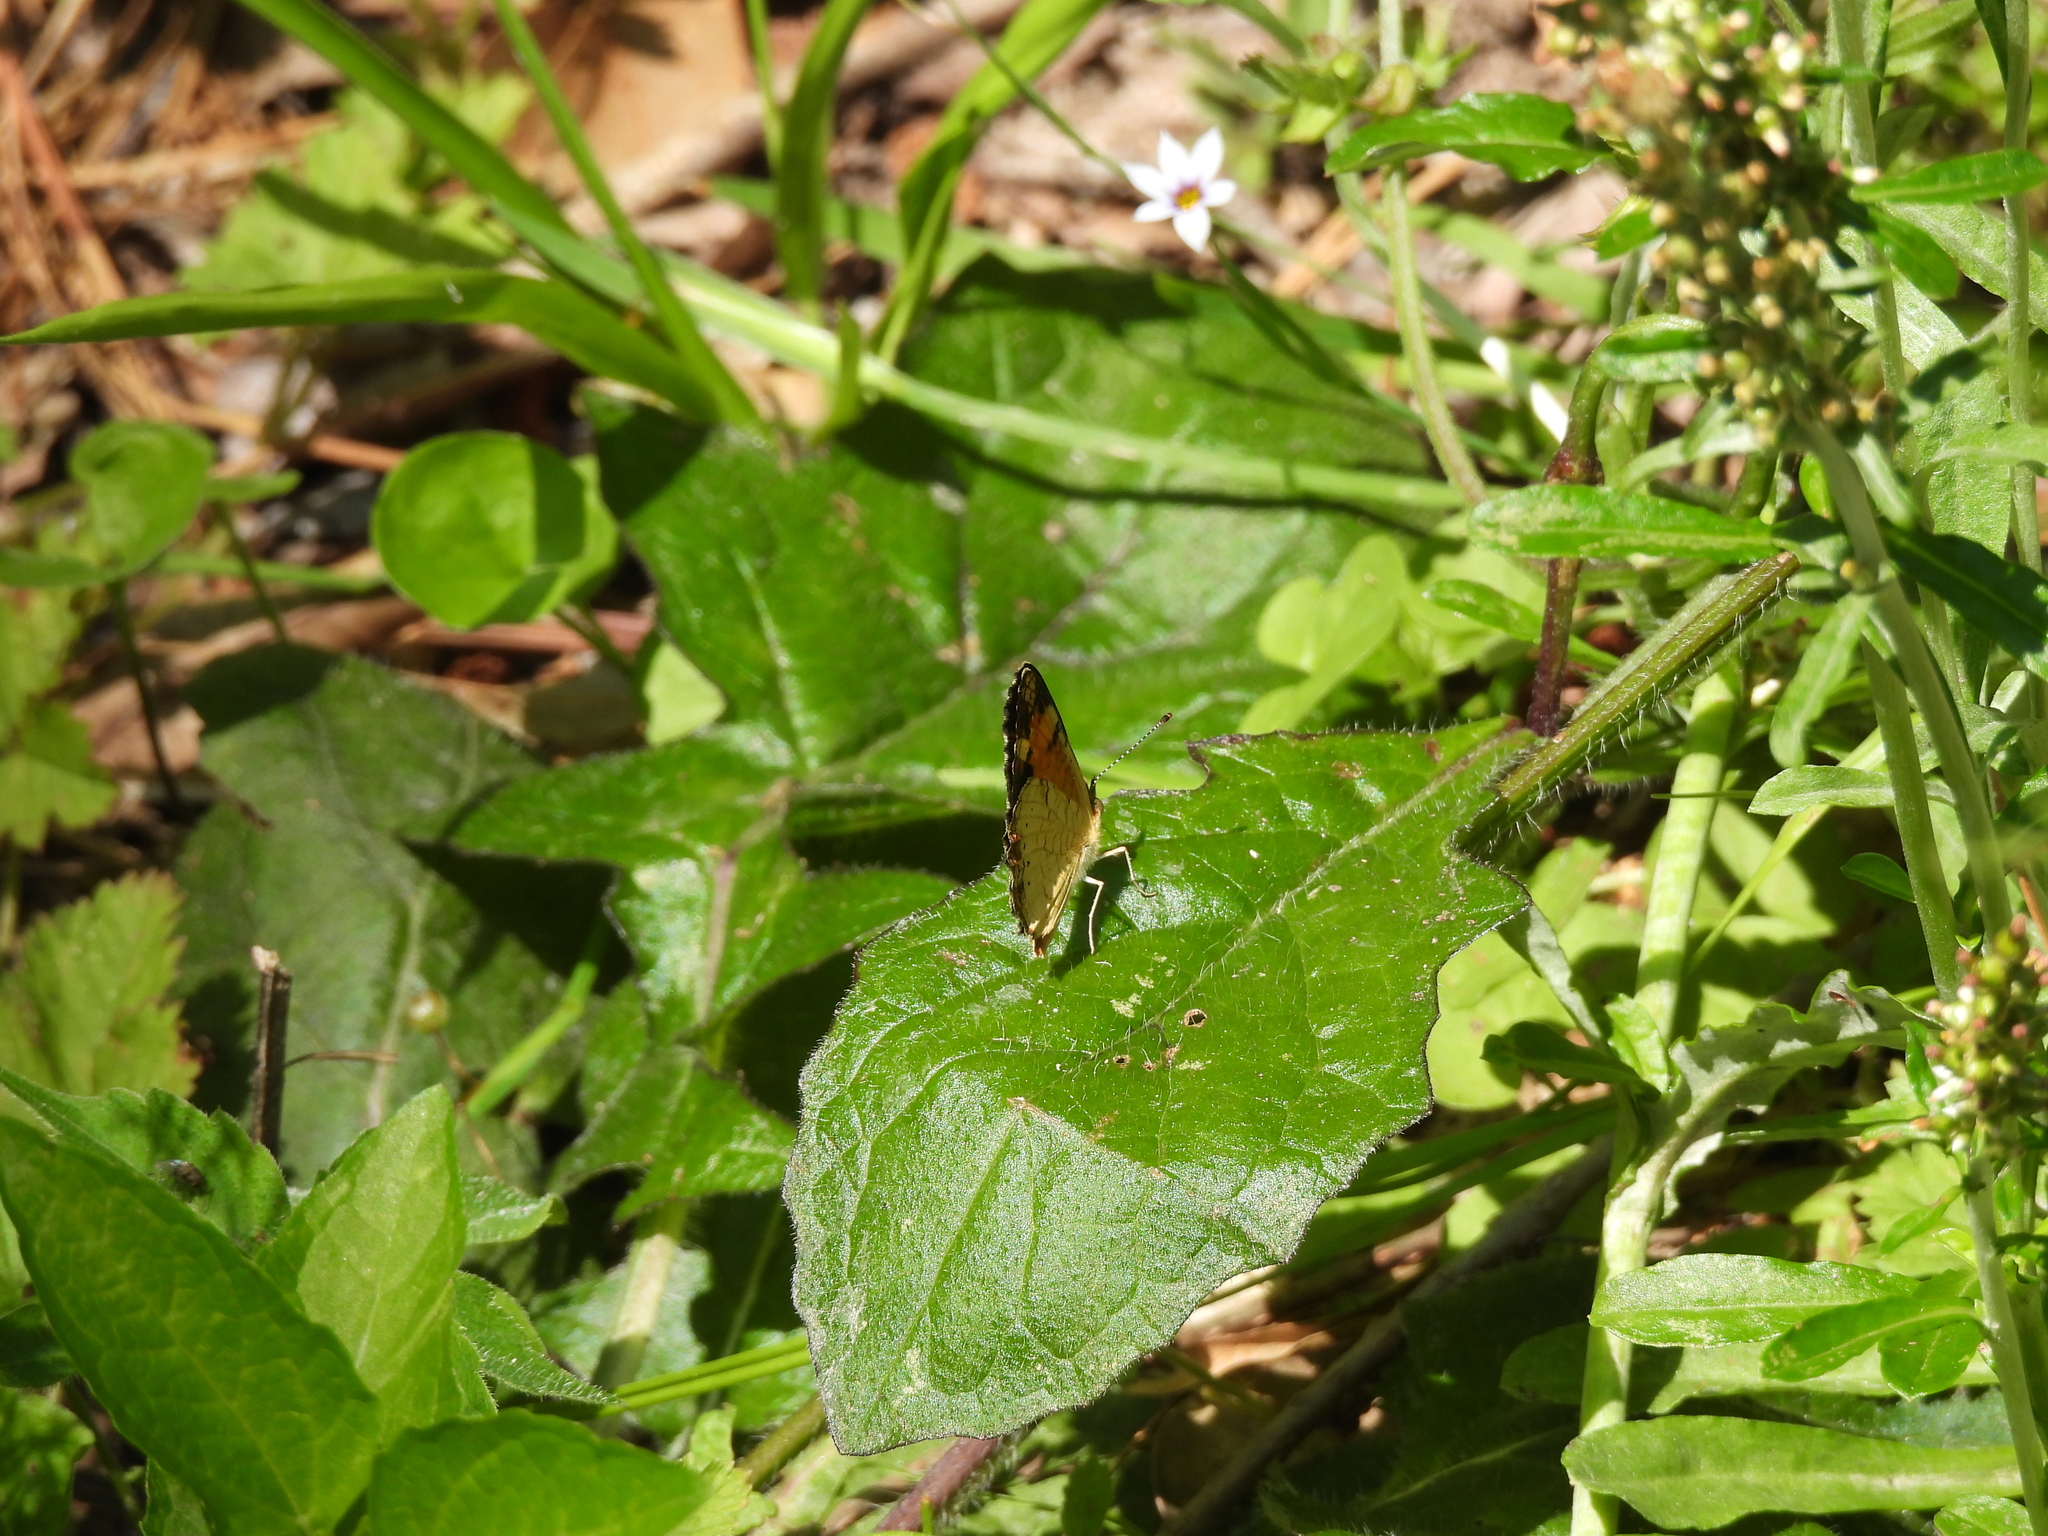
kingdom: Animalia
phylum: Arthropoda
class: Insecta
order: Lepidoptera
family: Nymphalidae
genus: Phyciodes
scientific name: Phyciodes tharos
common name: Pearl crescent
